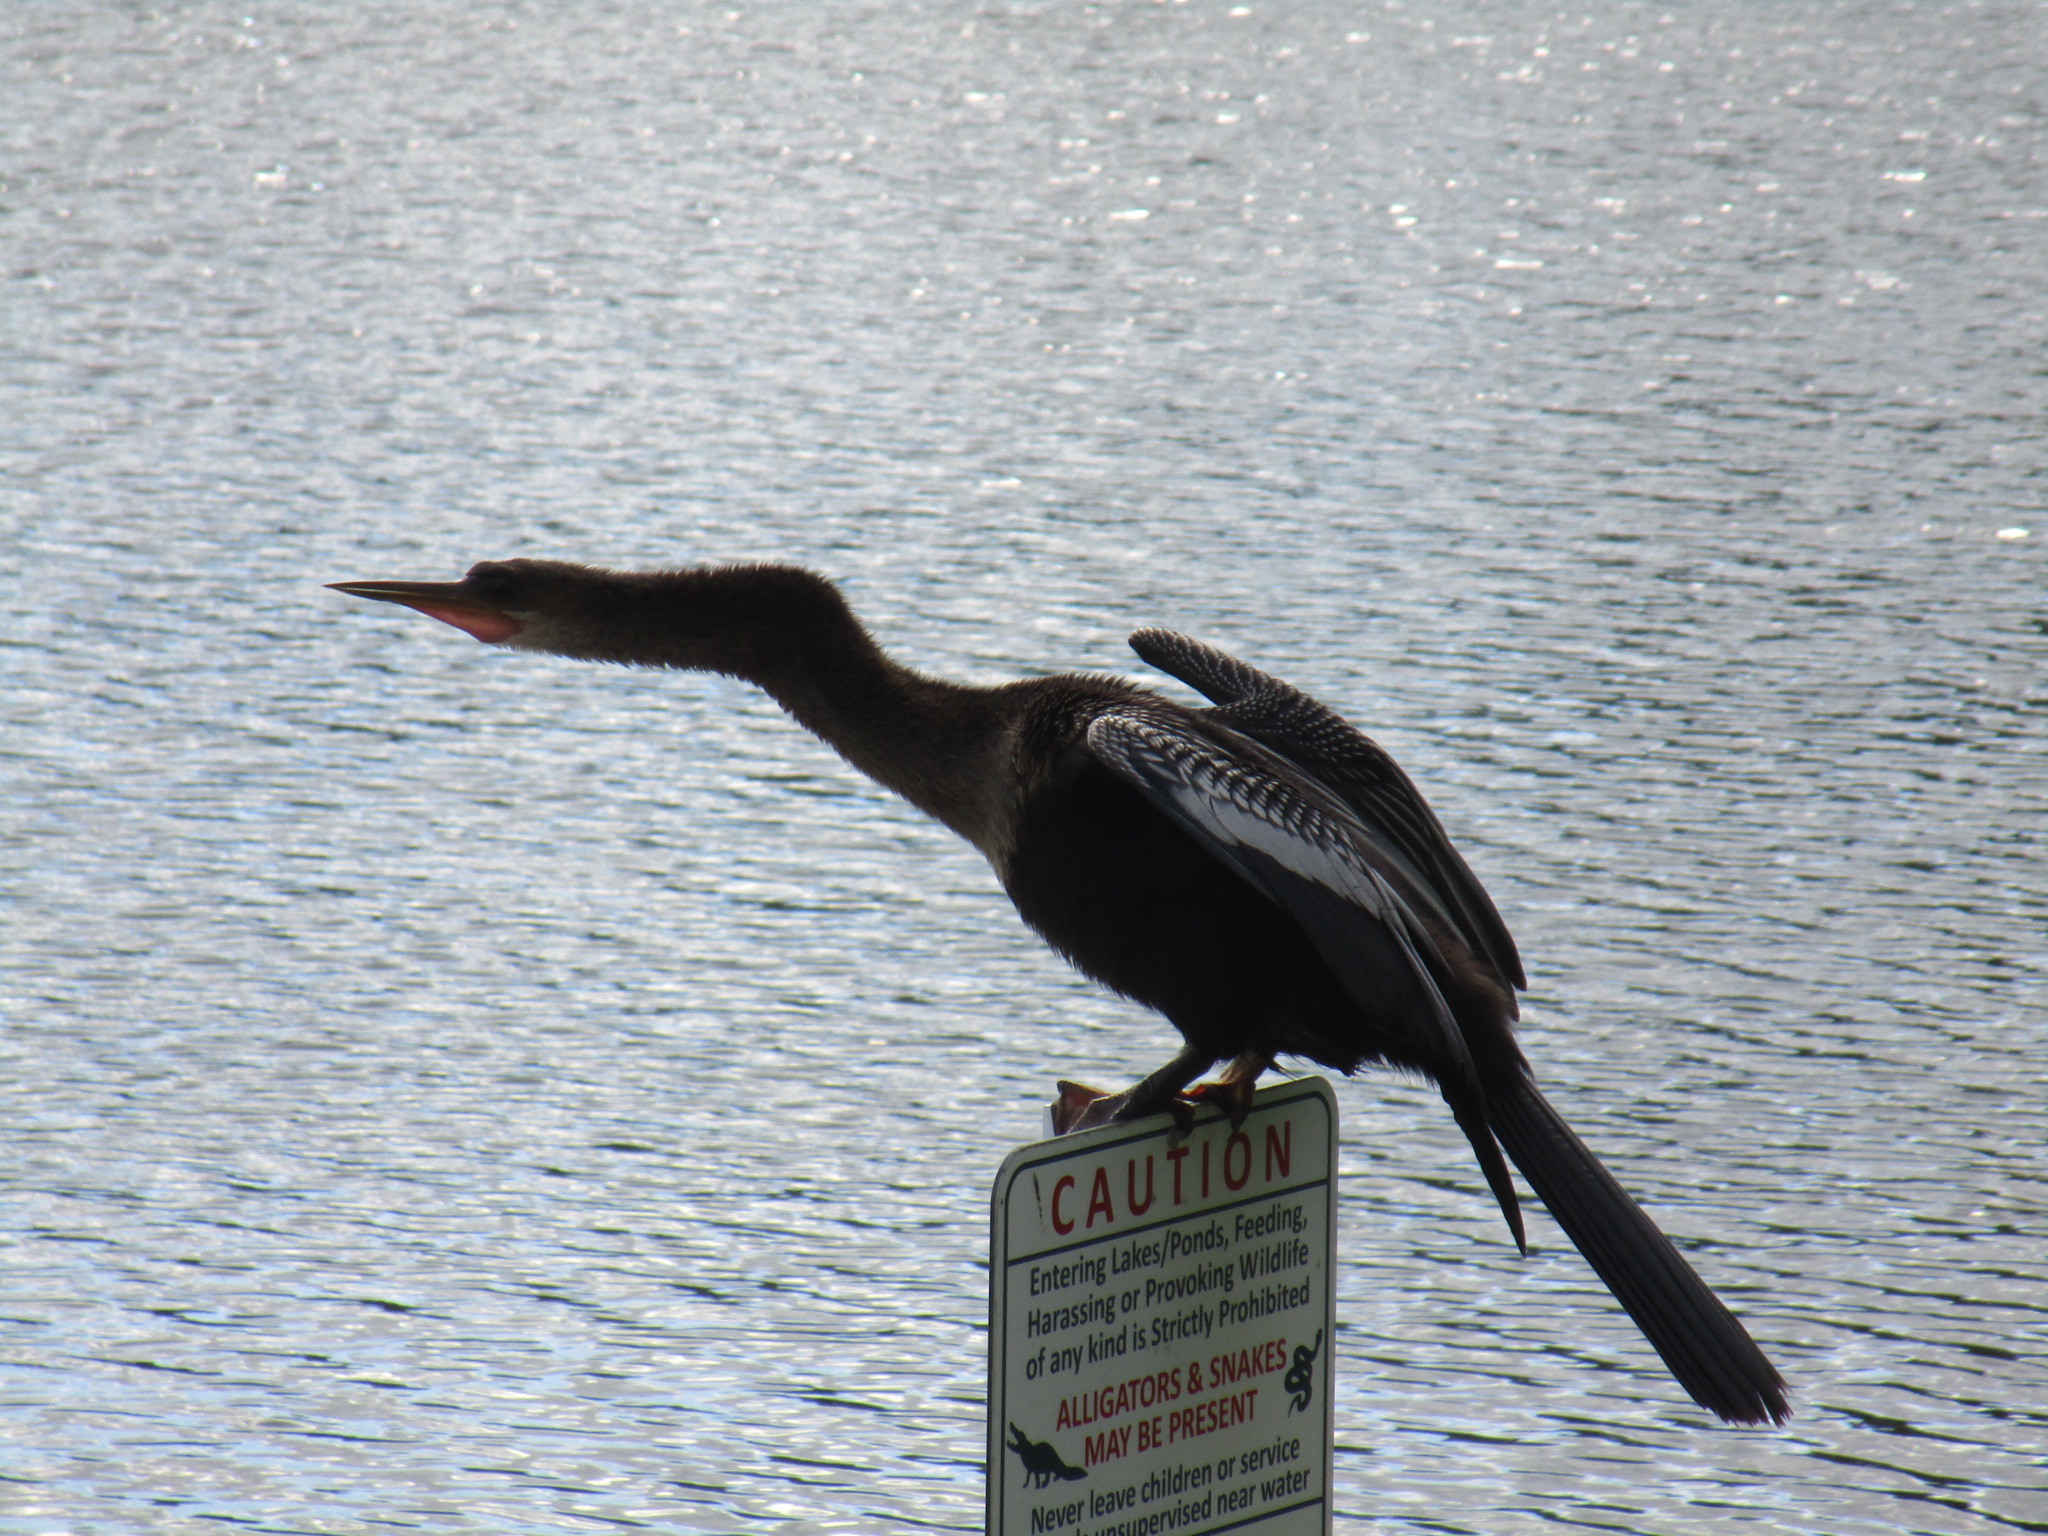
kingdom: Animalia
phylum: Chordata
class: Aves
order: Suliformes
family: Anhingidae
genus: Anhinga
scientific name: Anhinga anhinga
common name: Anhinga
